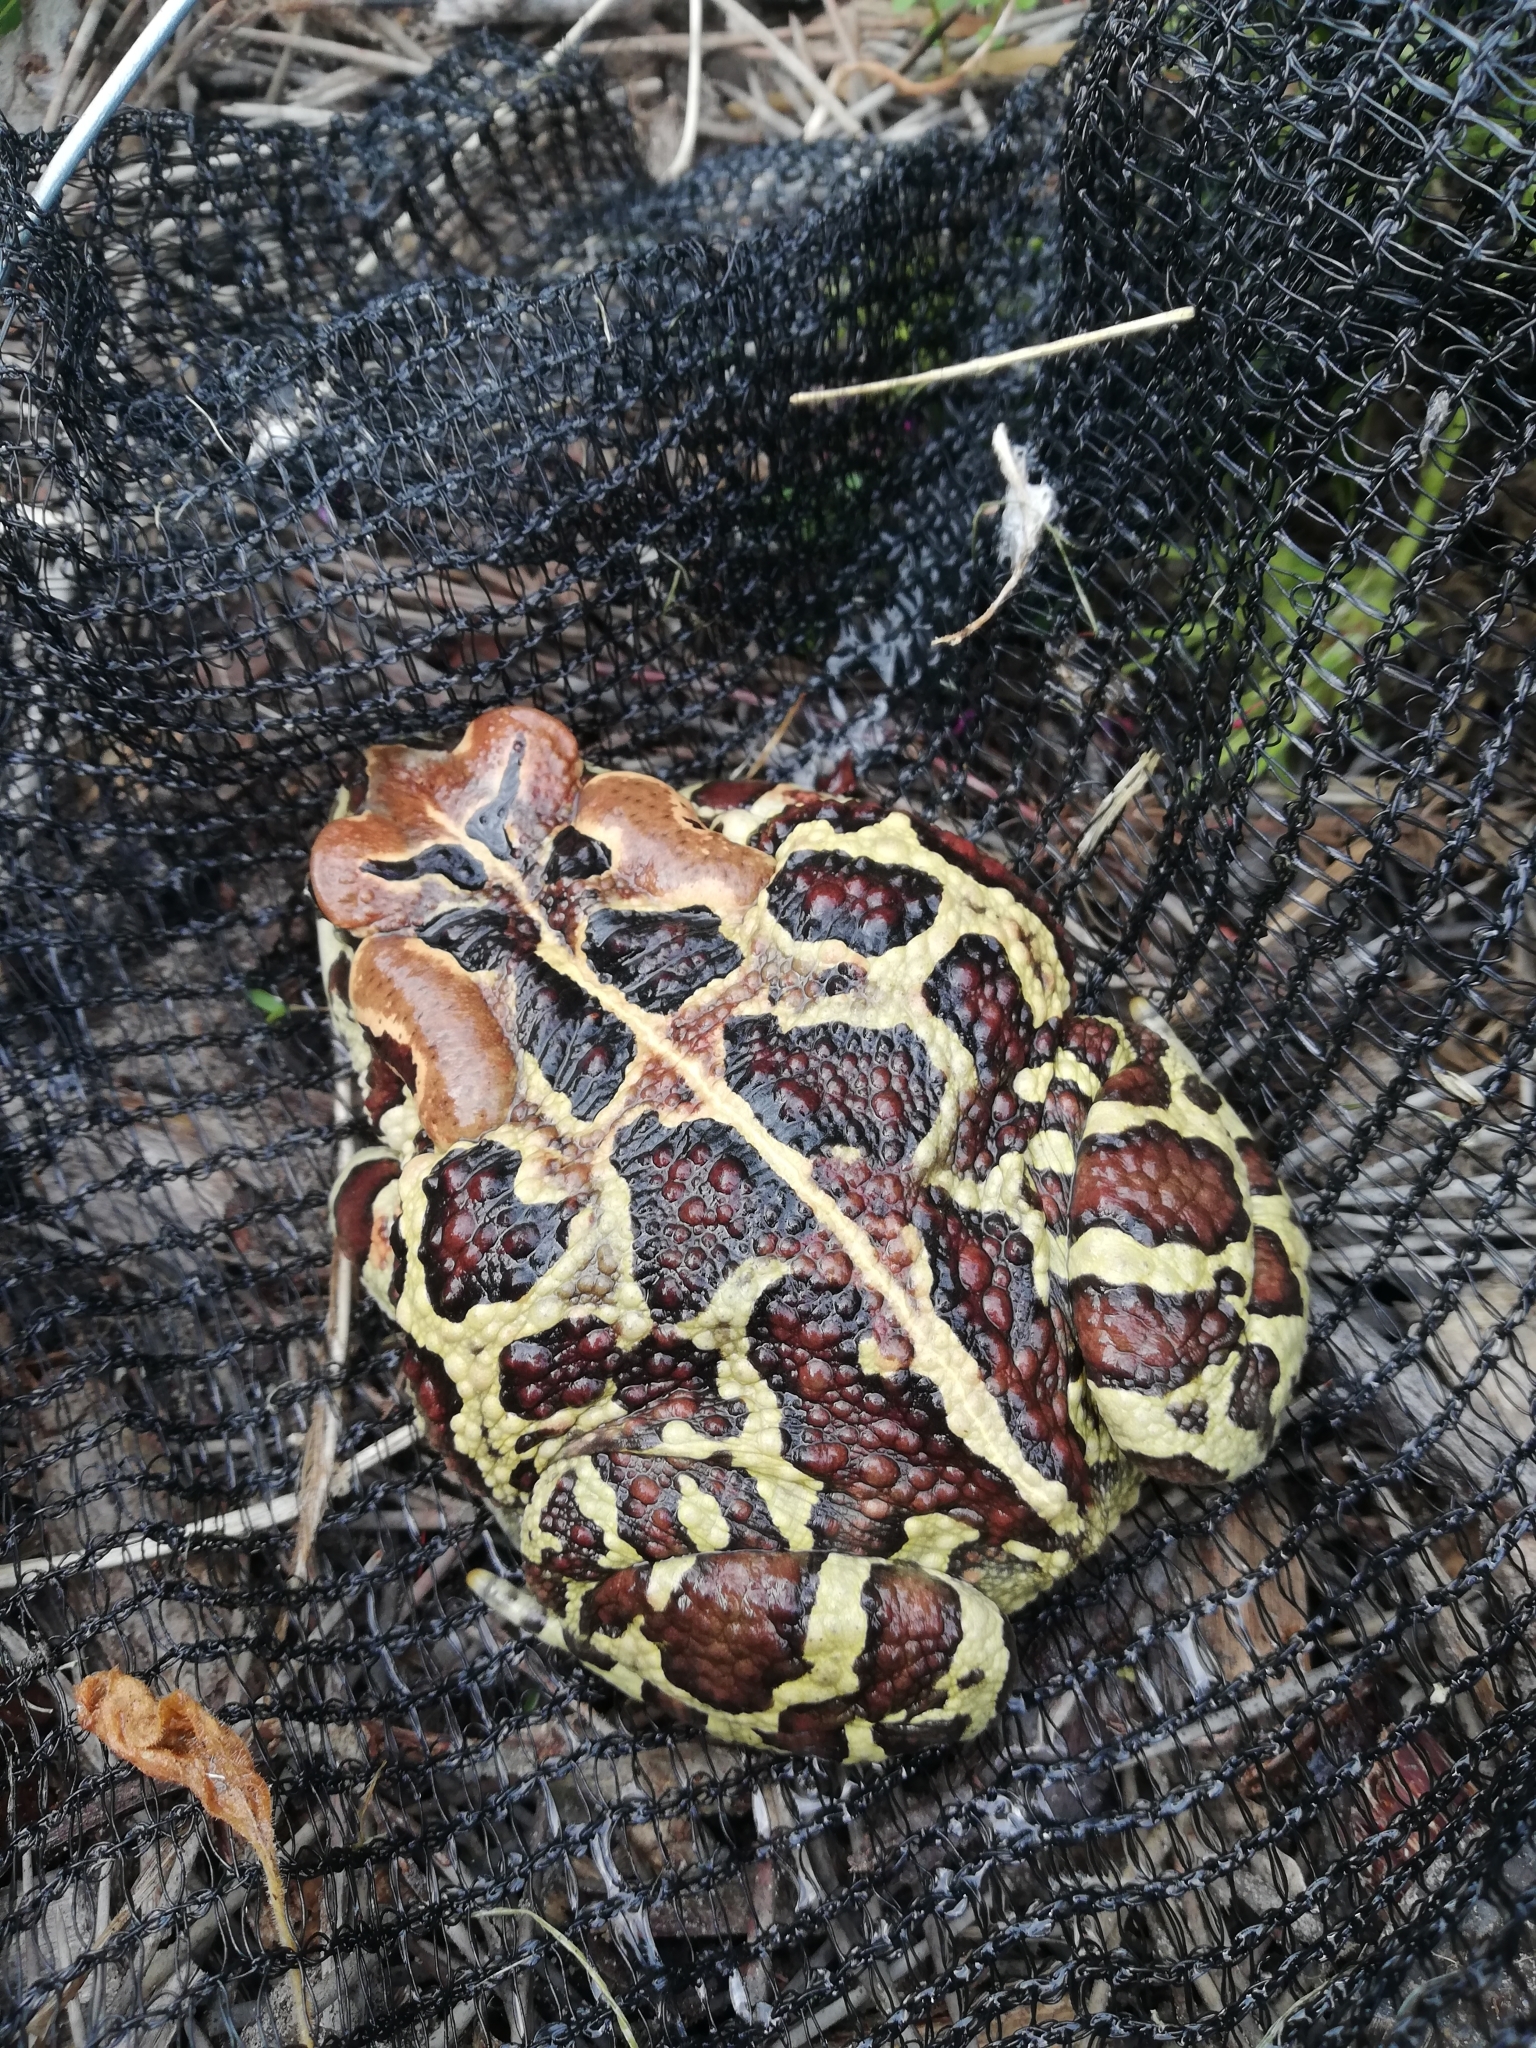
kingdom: Animalia
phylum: Chordata
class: Amphibia
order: Anura
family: Bufonidae
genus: Sclerophrys
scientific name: Sclerophrys pantherina
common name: Panther toad
